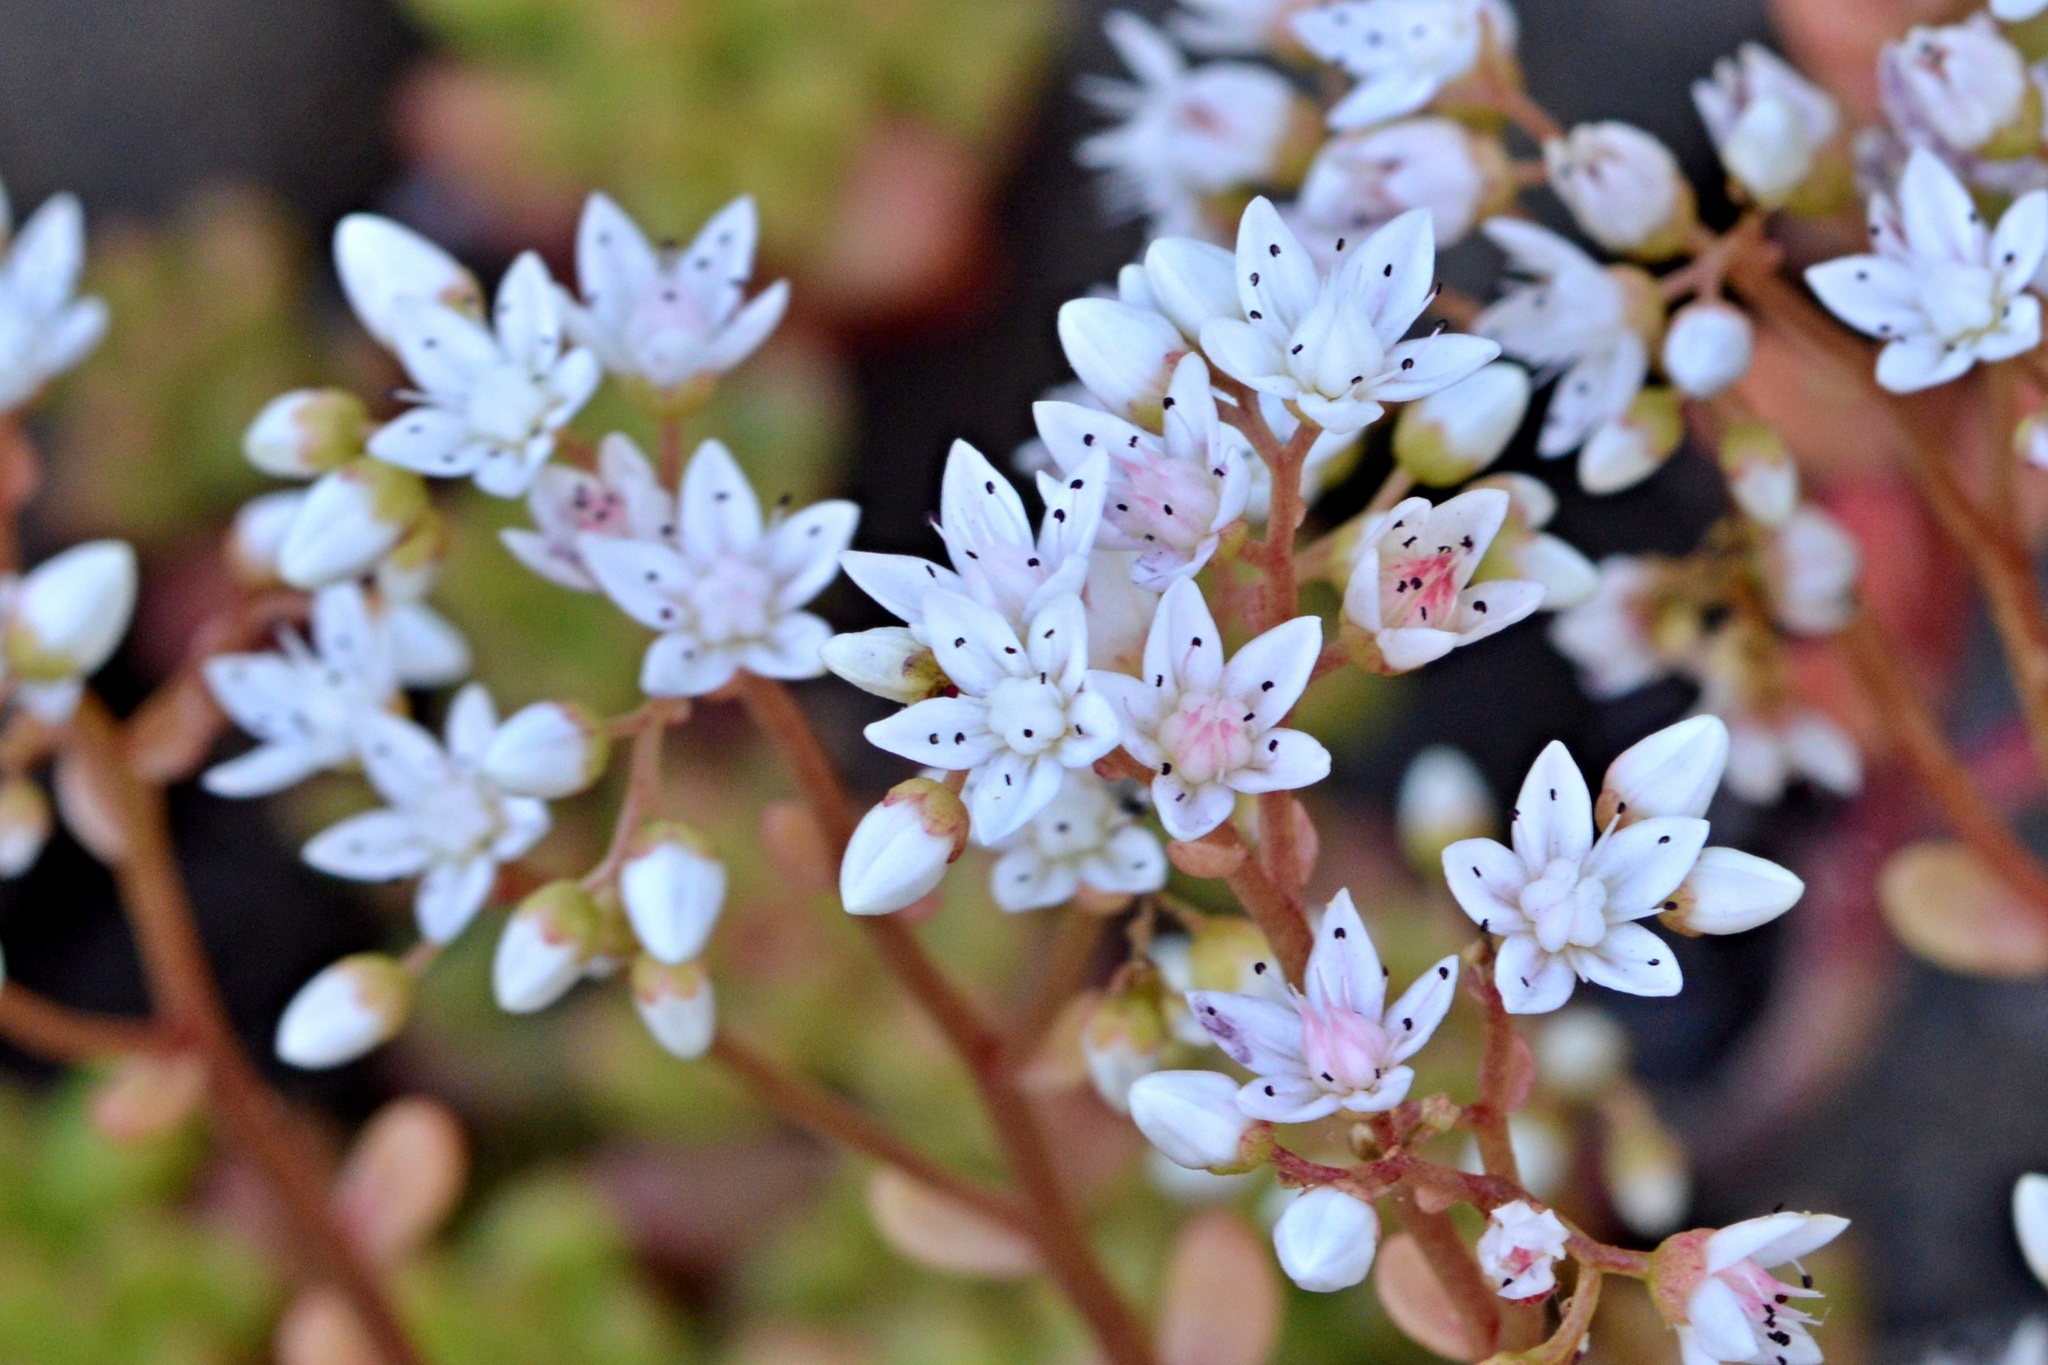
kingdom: Plantae
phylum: Tracheophyta
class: Magnoliopsida
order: Saxifragales
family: Crassulaceae
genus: Sedum
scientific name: Sedum album
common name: White stonecrop
